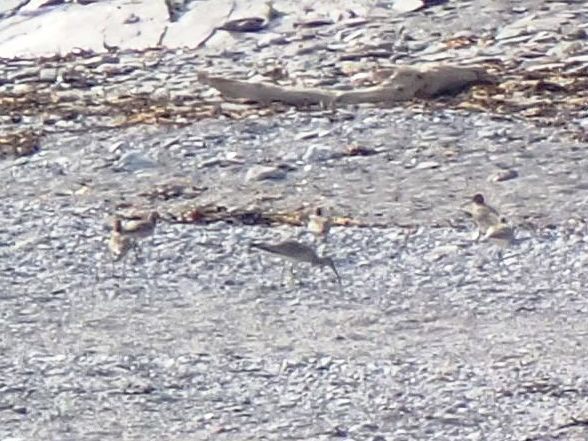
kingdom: Animalia
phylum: Chordata
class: Aves
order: Charadriiformes
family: Scolopacidae
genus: Numenius
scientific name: Numenius phaeopus
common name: Whimbrel
